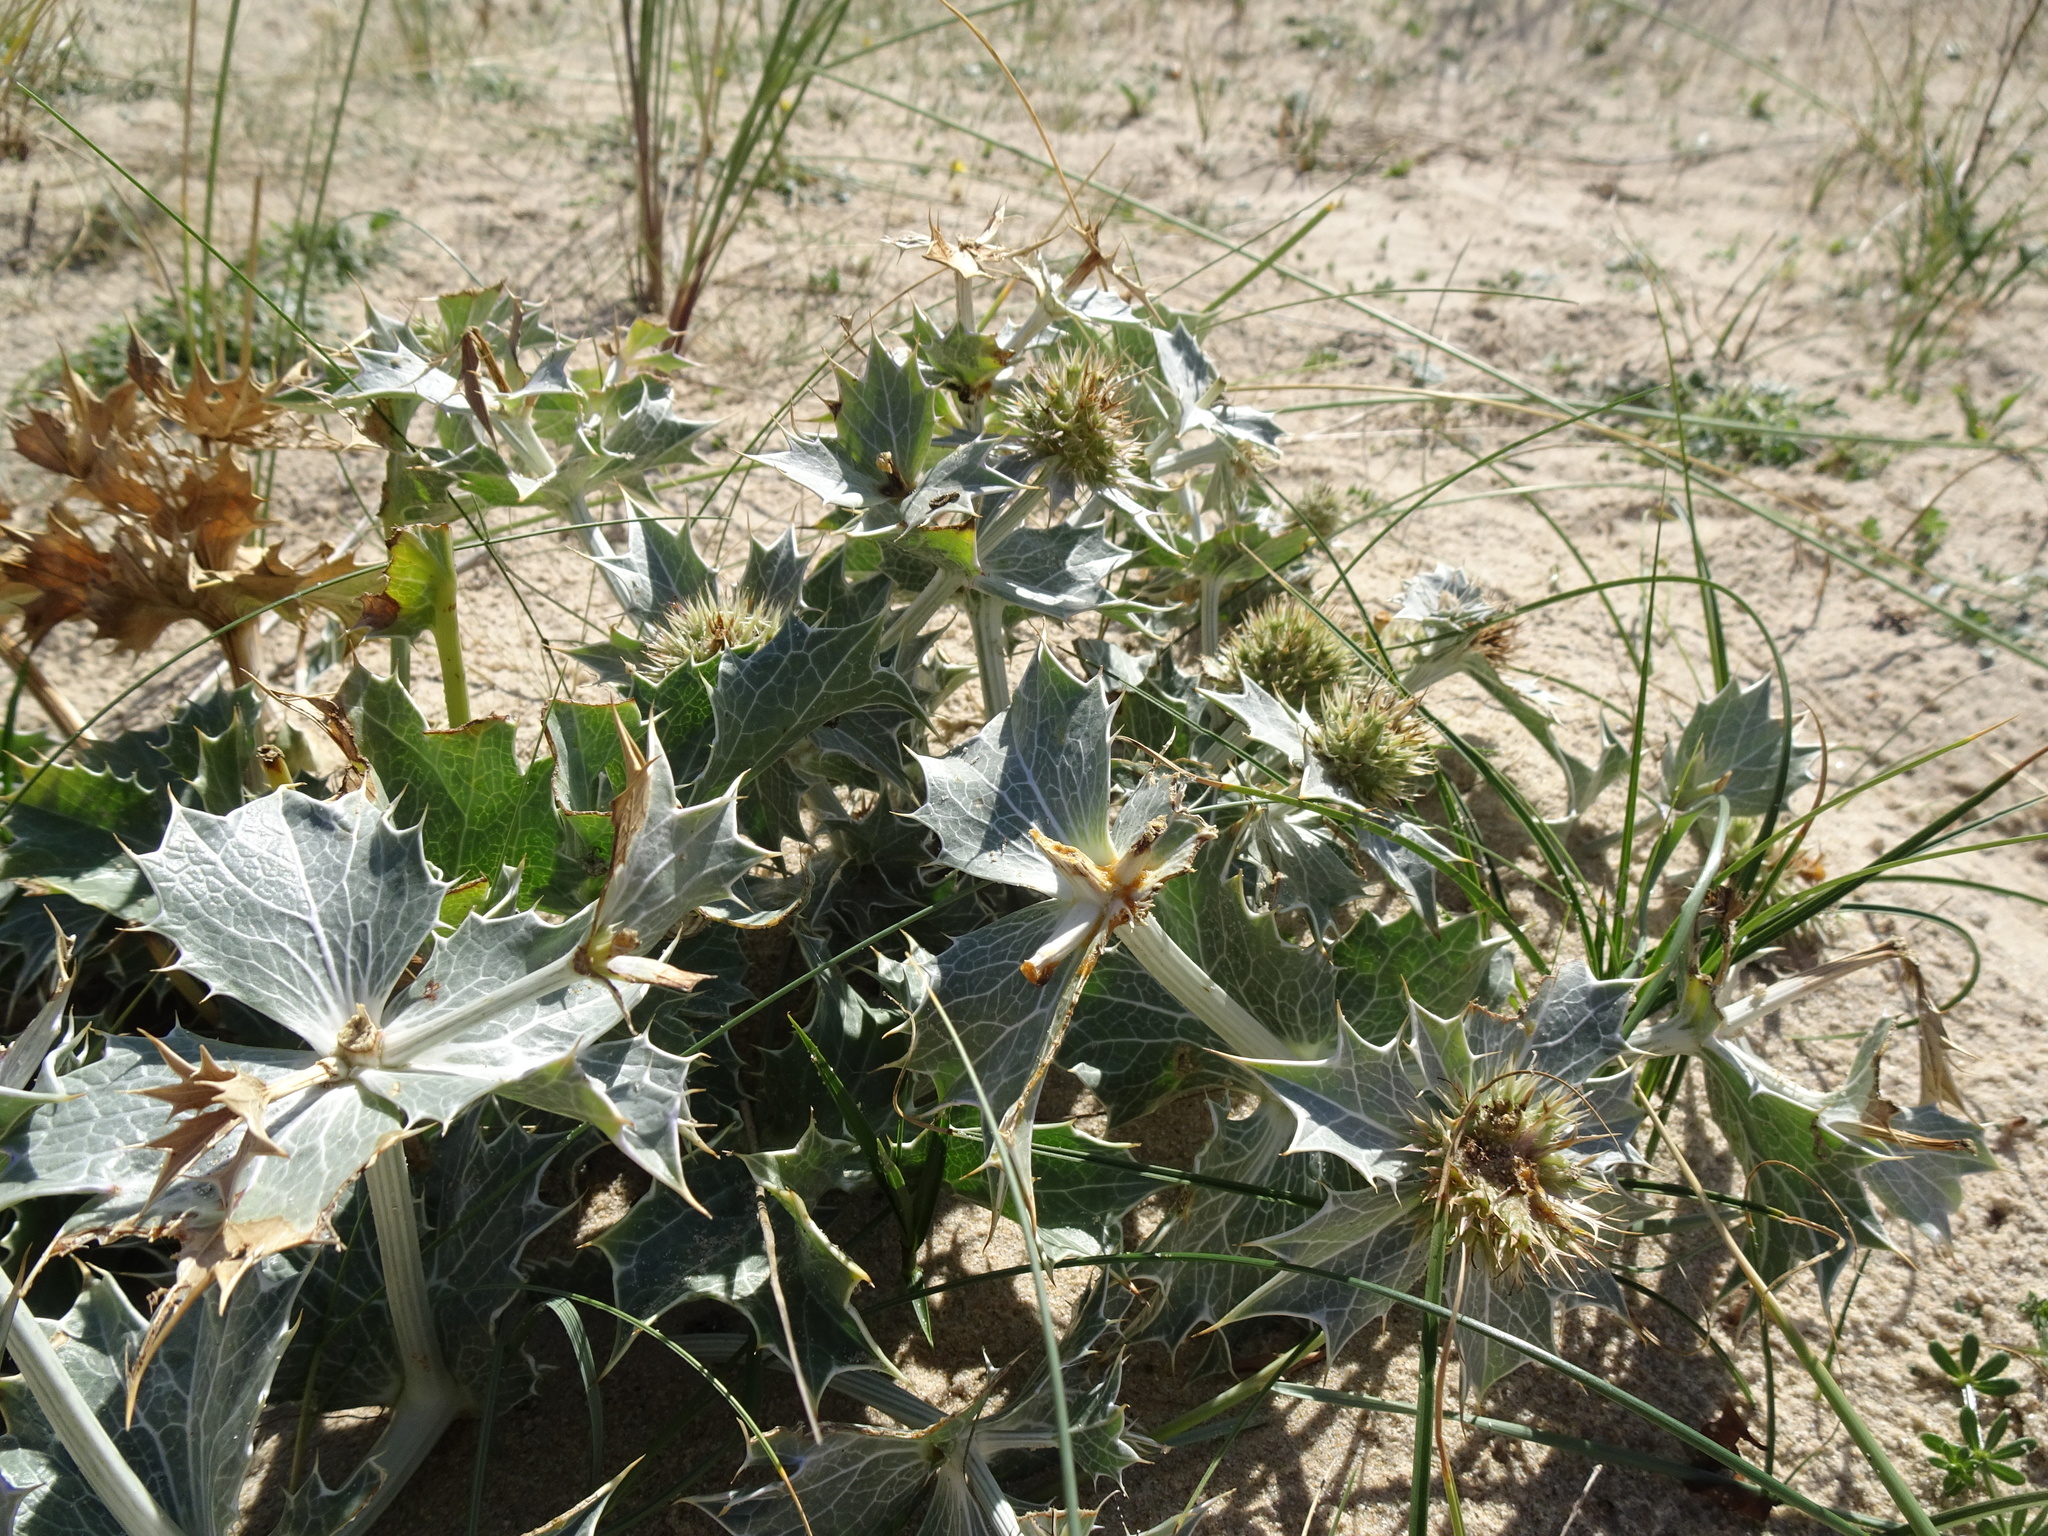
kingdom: Plantae
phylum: Tracheophyta
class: Magnoliopsida
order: Apiales
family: Apiaceae
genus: Eryngium
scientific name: Eryngium maritimum
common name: Sea-holly
